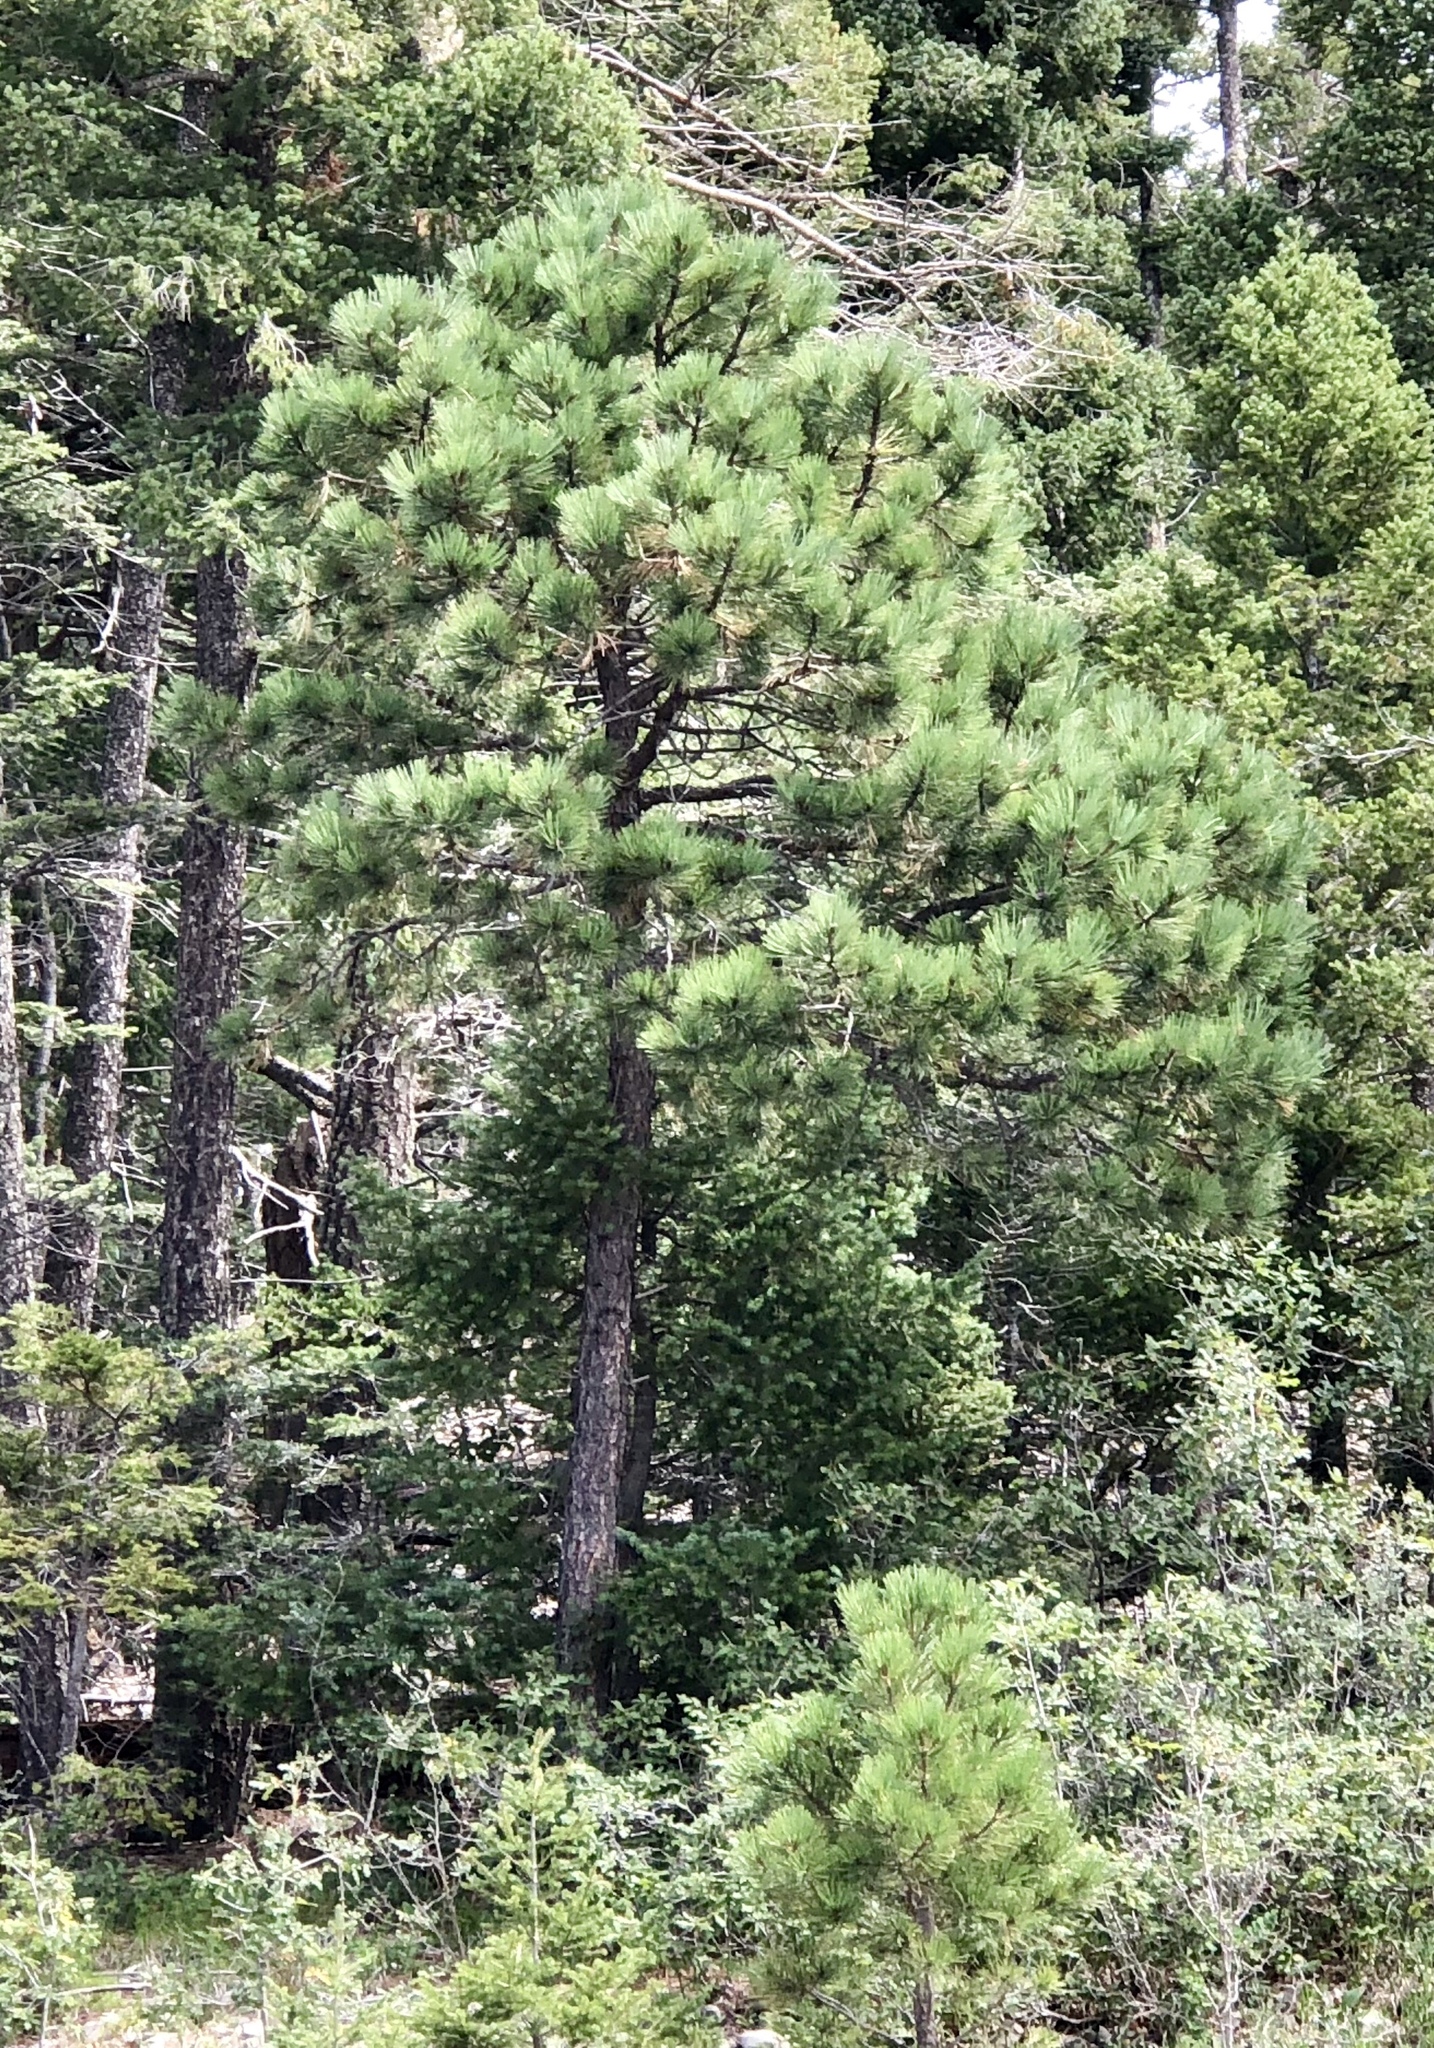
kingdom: Plantae
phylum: Tracheophyta
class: Pinopsida
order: Pinales
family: Pinaceae
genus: Pinus
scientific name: Pinus ponderosa
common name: Western yellow-pine
